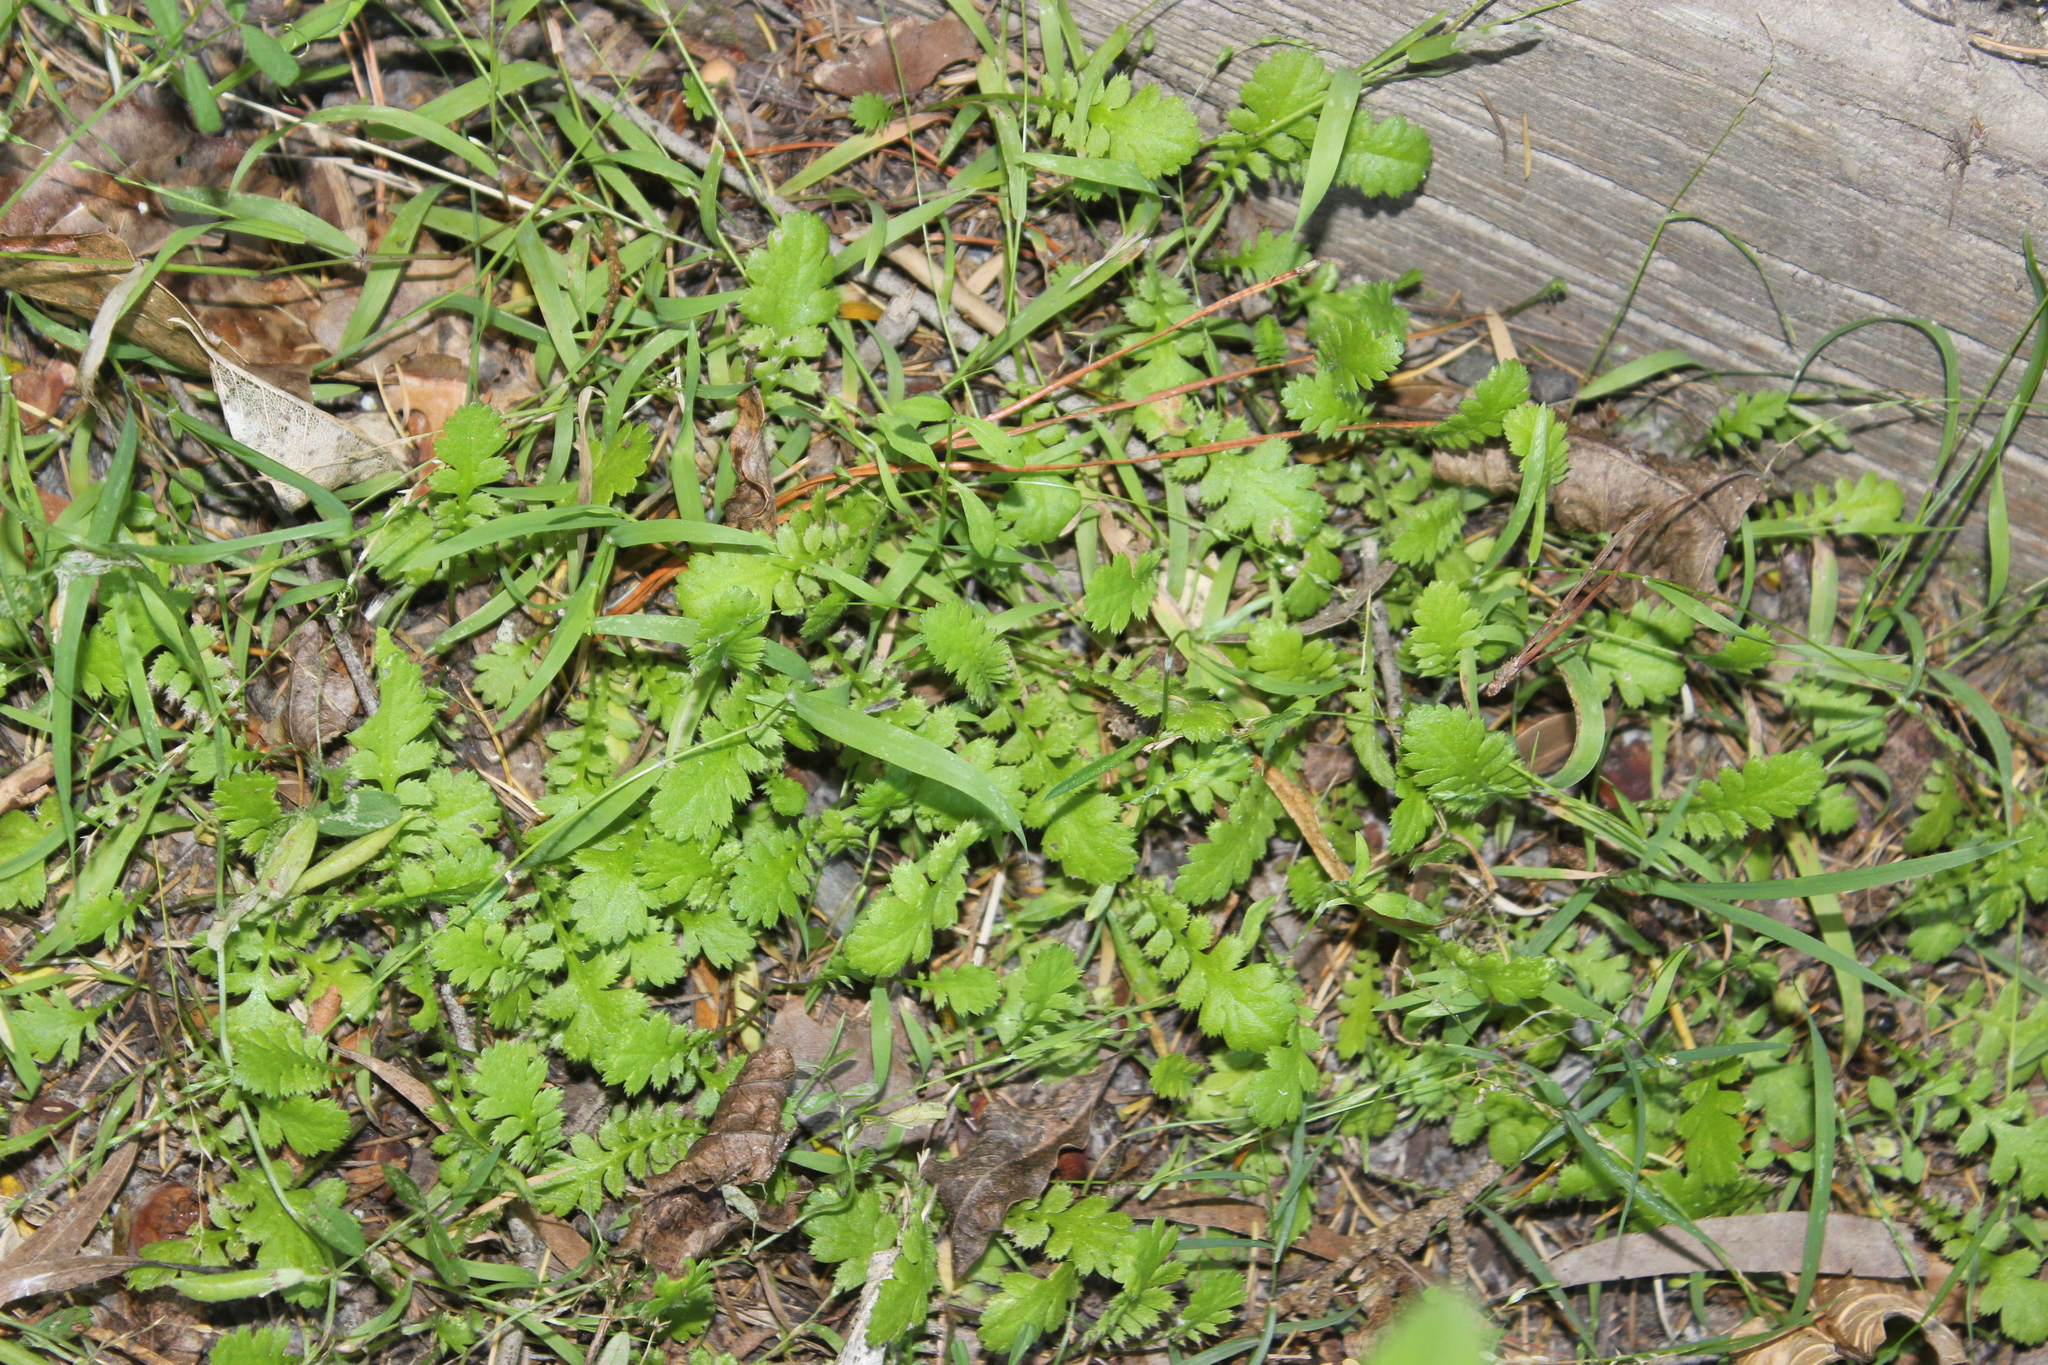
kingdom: Plantae
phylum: Tracheophyta
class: Magnoliopsida
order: Asterales
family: Asteraceae
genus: Leptinella
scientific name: Leptinella squalida
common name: New zealand brass-buttons
